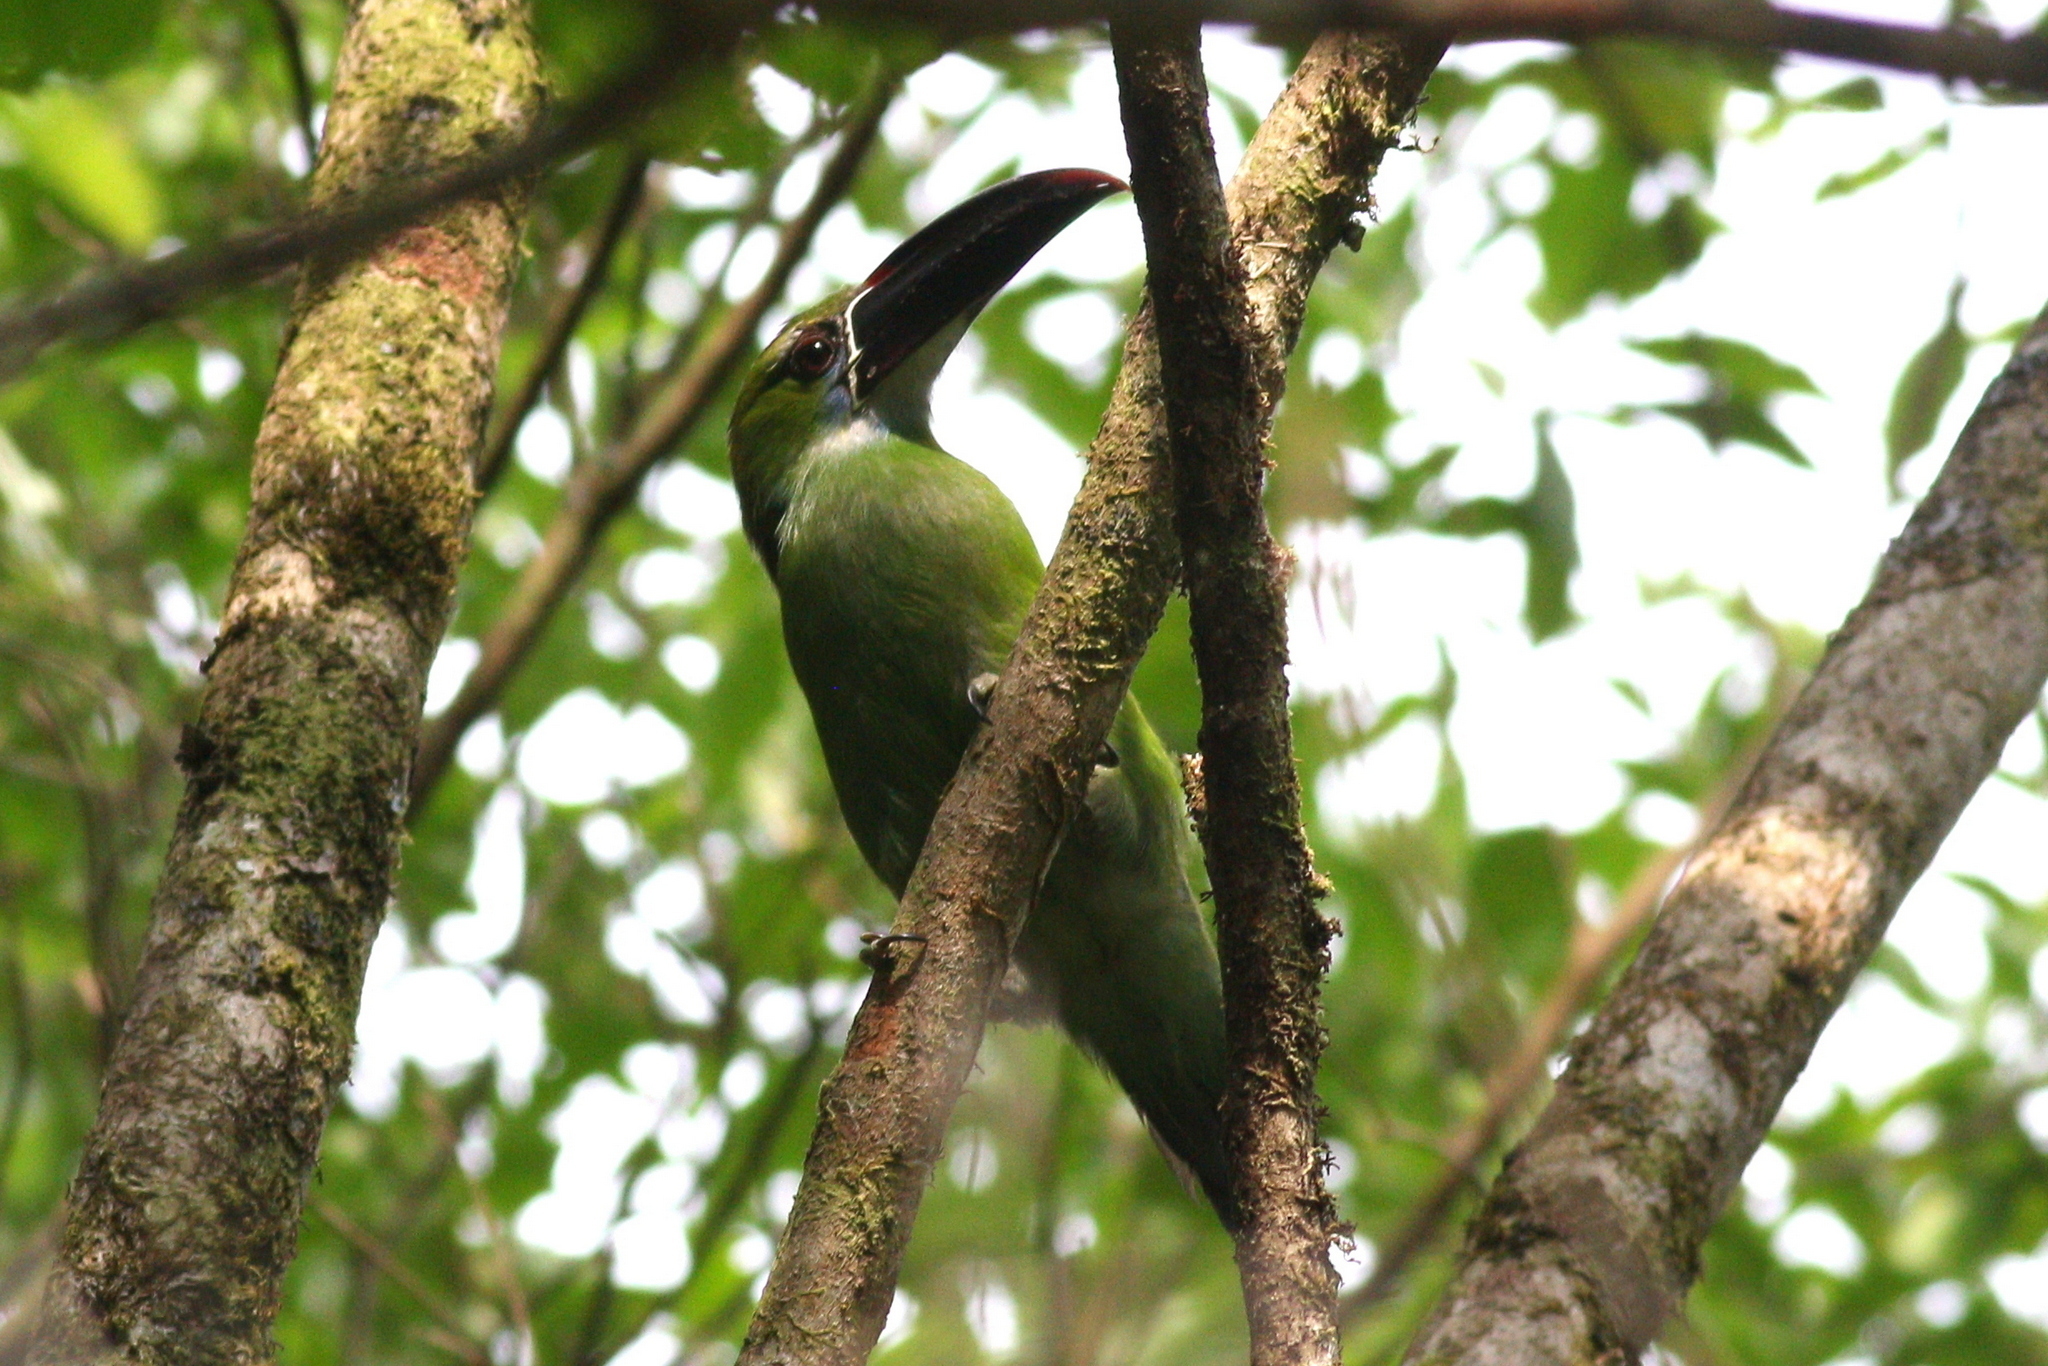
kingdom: Animalia
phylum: Chordata
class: Aves
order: Piciformes
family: Ramphastidae
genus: Aulacorhynchus
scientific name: Aulacorhynchus derbianus
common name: Chestnut-tipped toucanet
